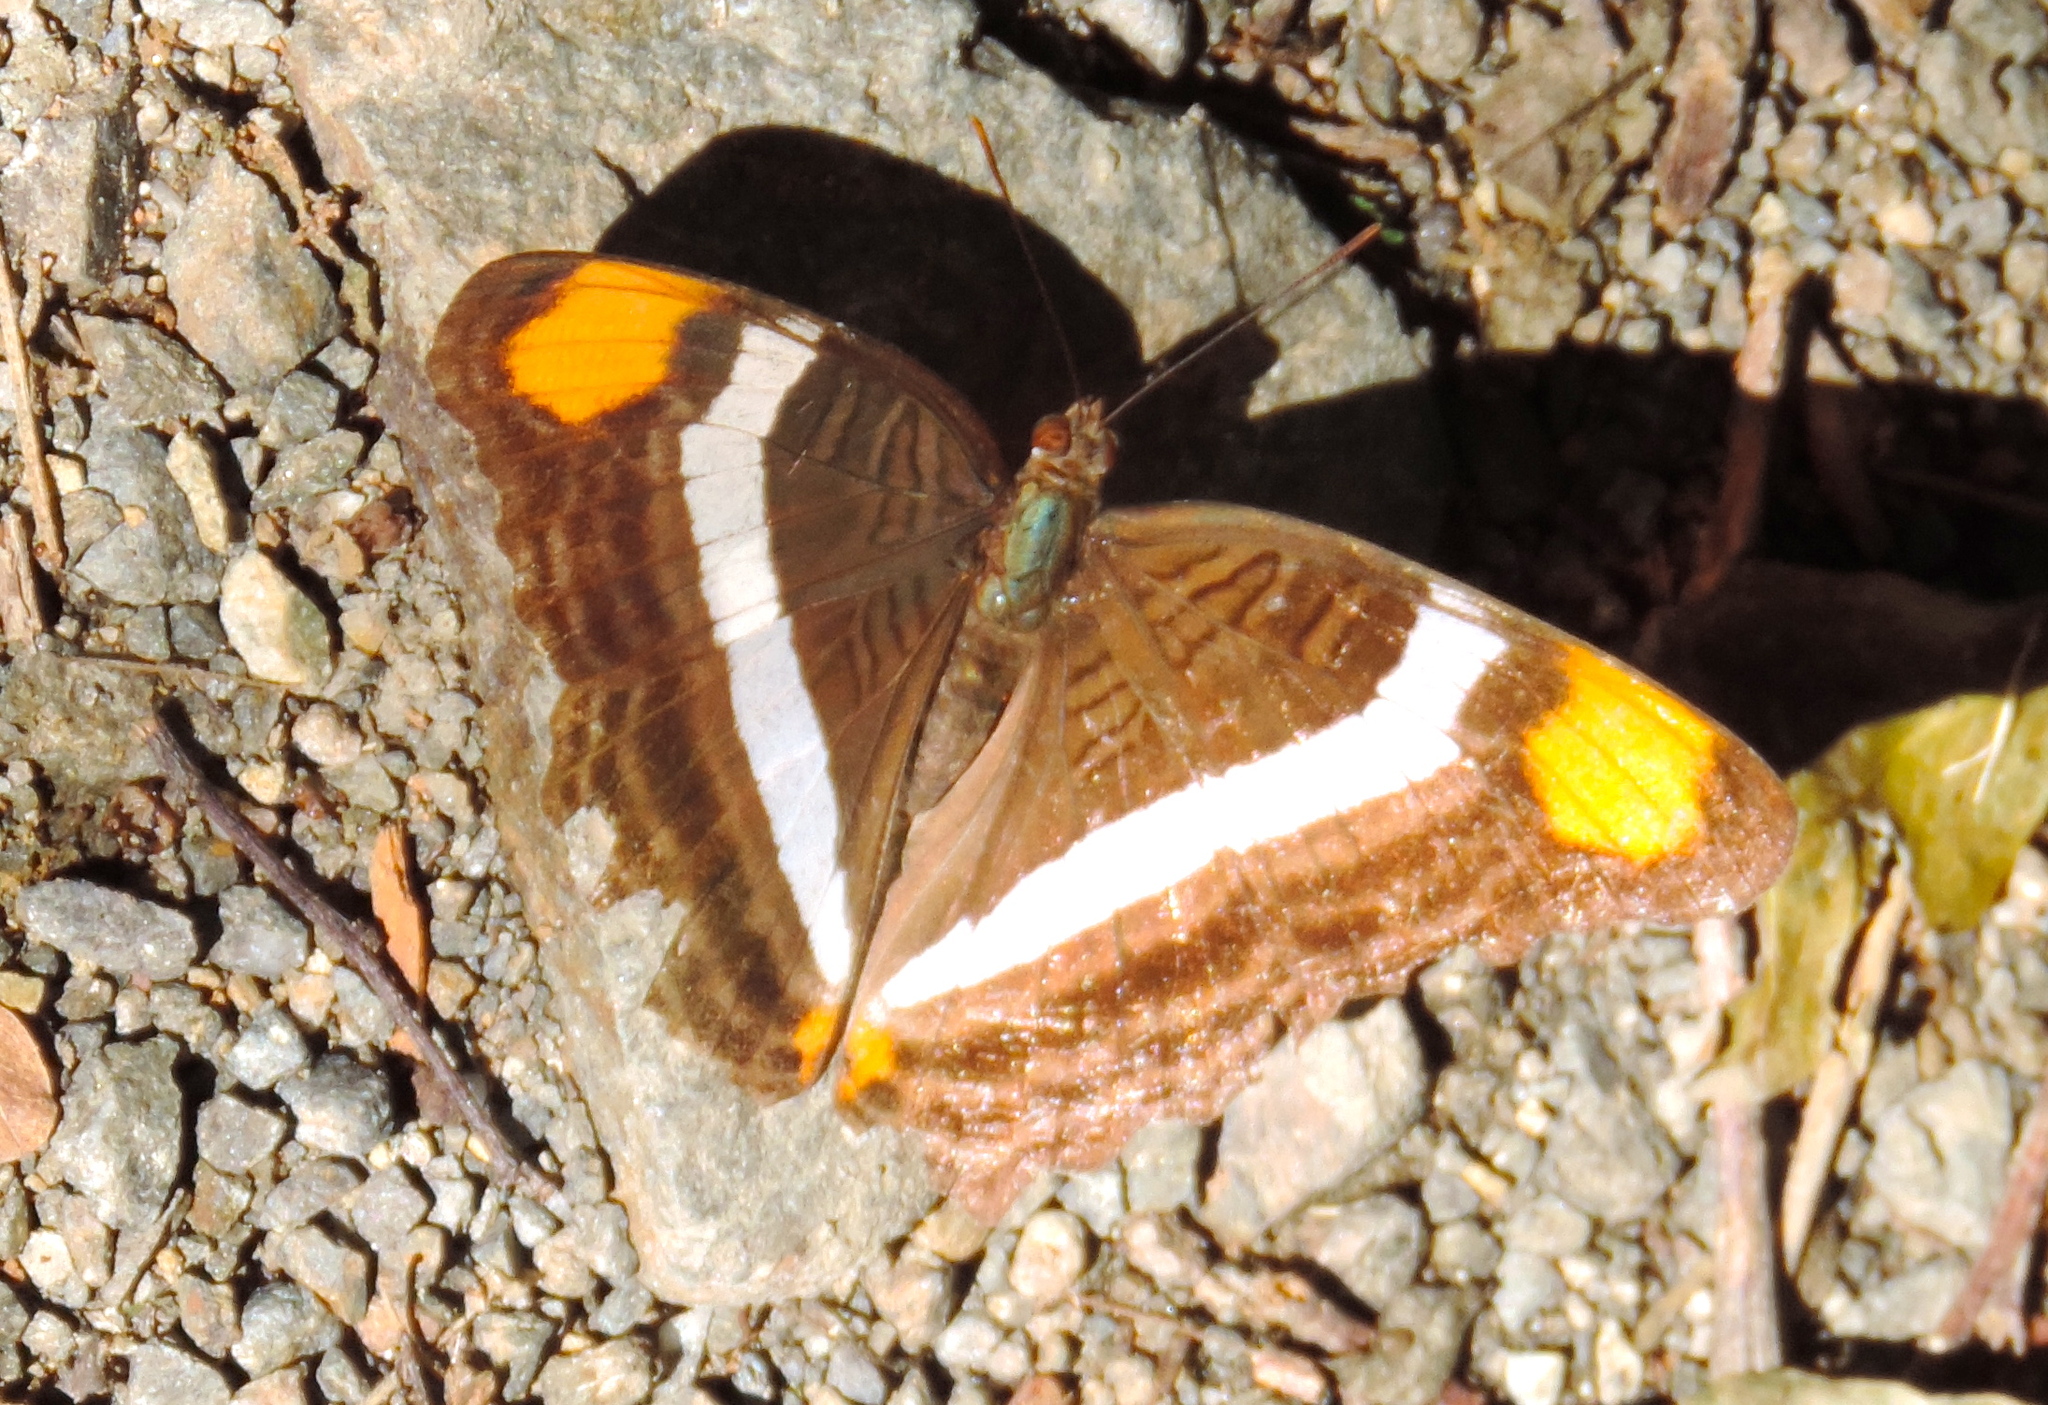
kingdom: Animalia
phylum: Arthropoda
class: Insecta
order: Lepidoptera
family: Nymphalidae
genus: Limenitis
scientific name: Limenitis fessonia
